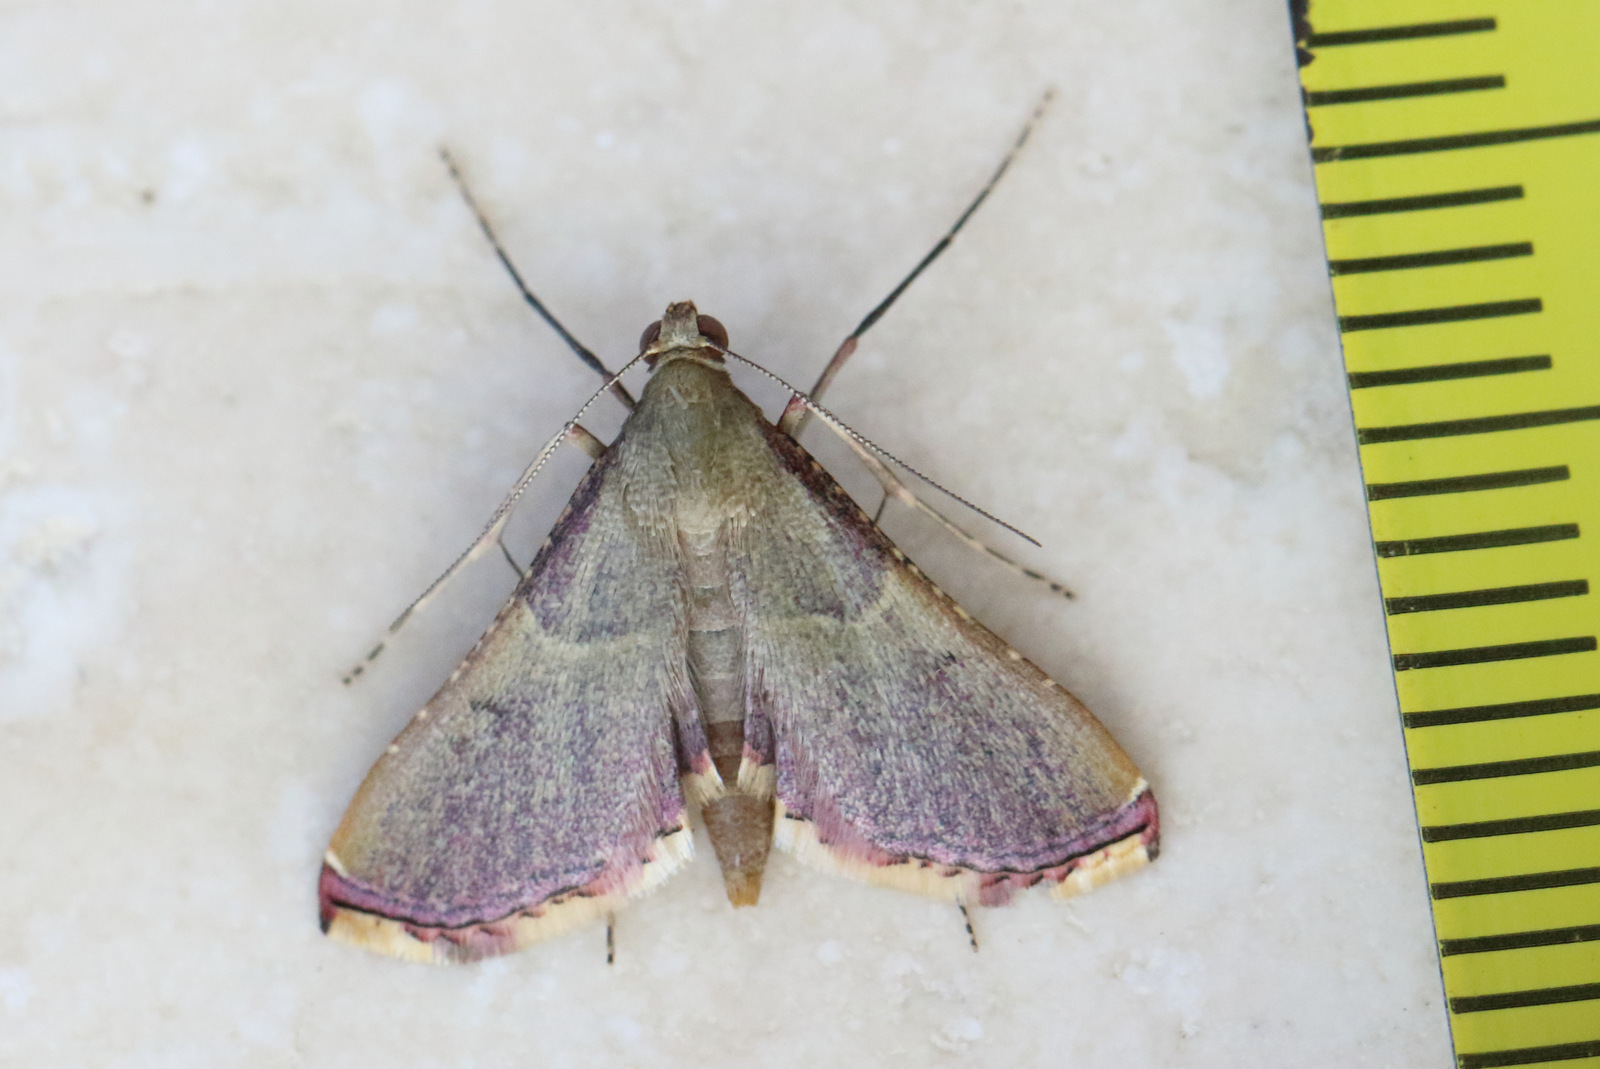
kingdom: Animalia
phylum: Arthropoda
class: Insecta
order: Lepidoptera
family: Pyralidae
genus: Endotricha
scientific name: Endotricha mesenterialis
